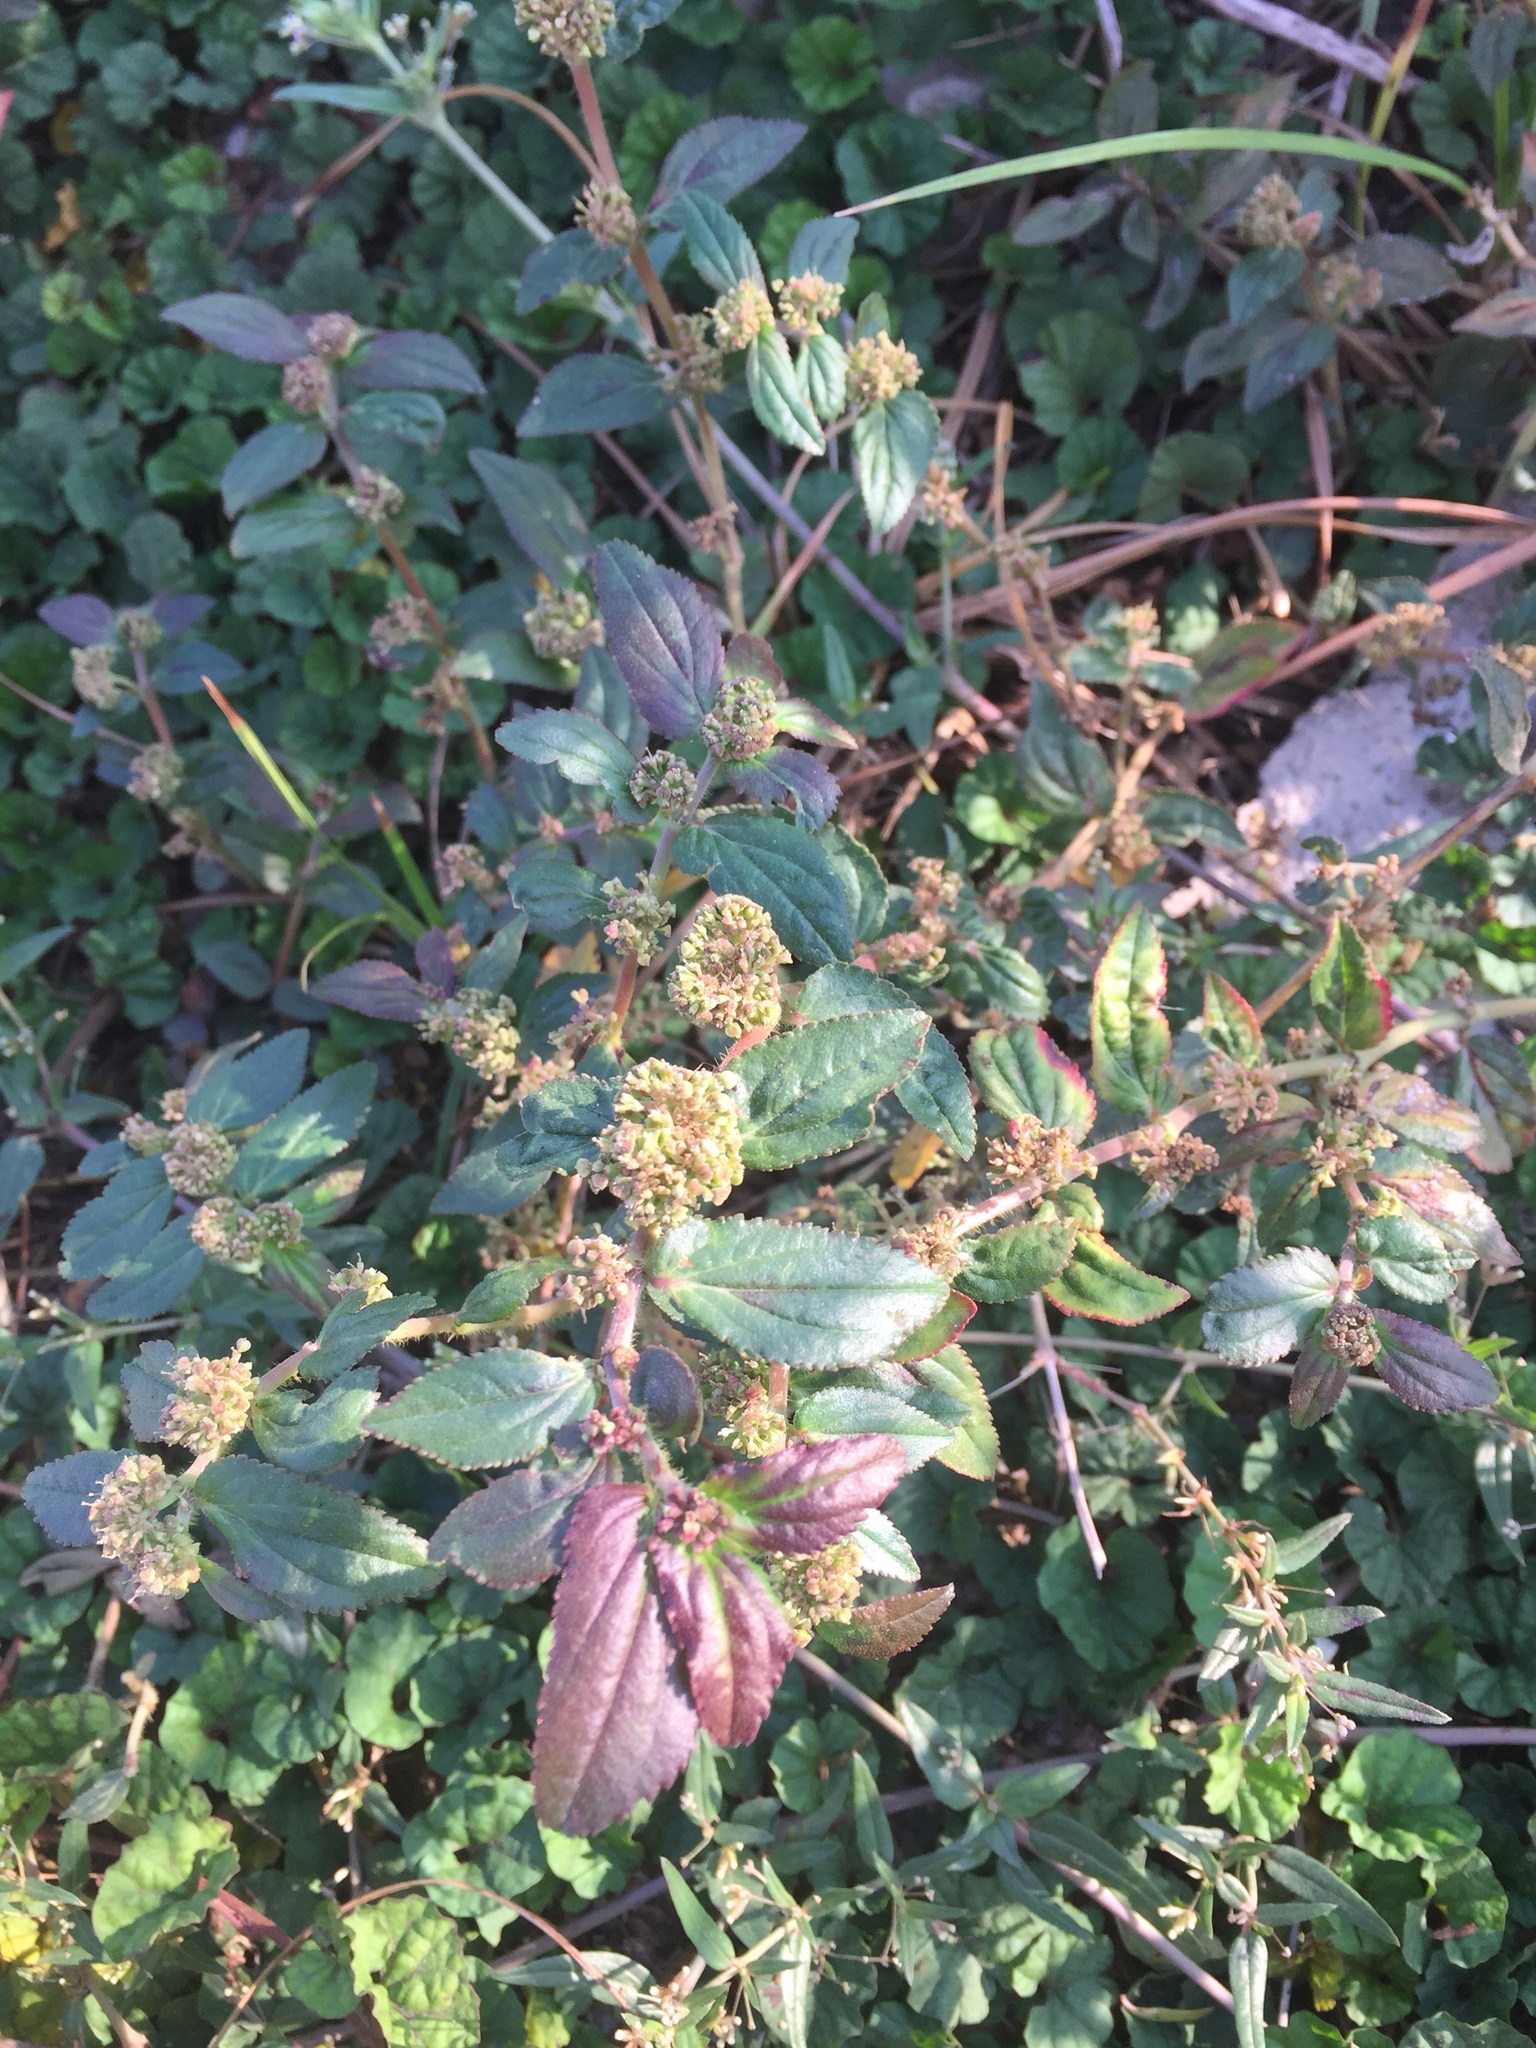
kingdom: Plantae
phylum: Tracheophyta
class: Magnoliopsida
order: Malpighiales
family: Euphorbiaceae
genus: Euphorbia
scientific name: Euphorbia hirta
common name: Pillpod sandmat
